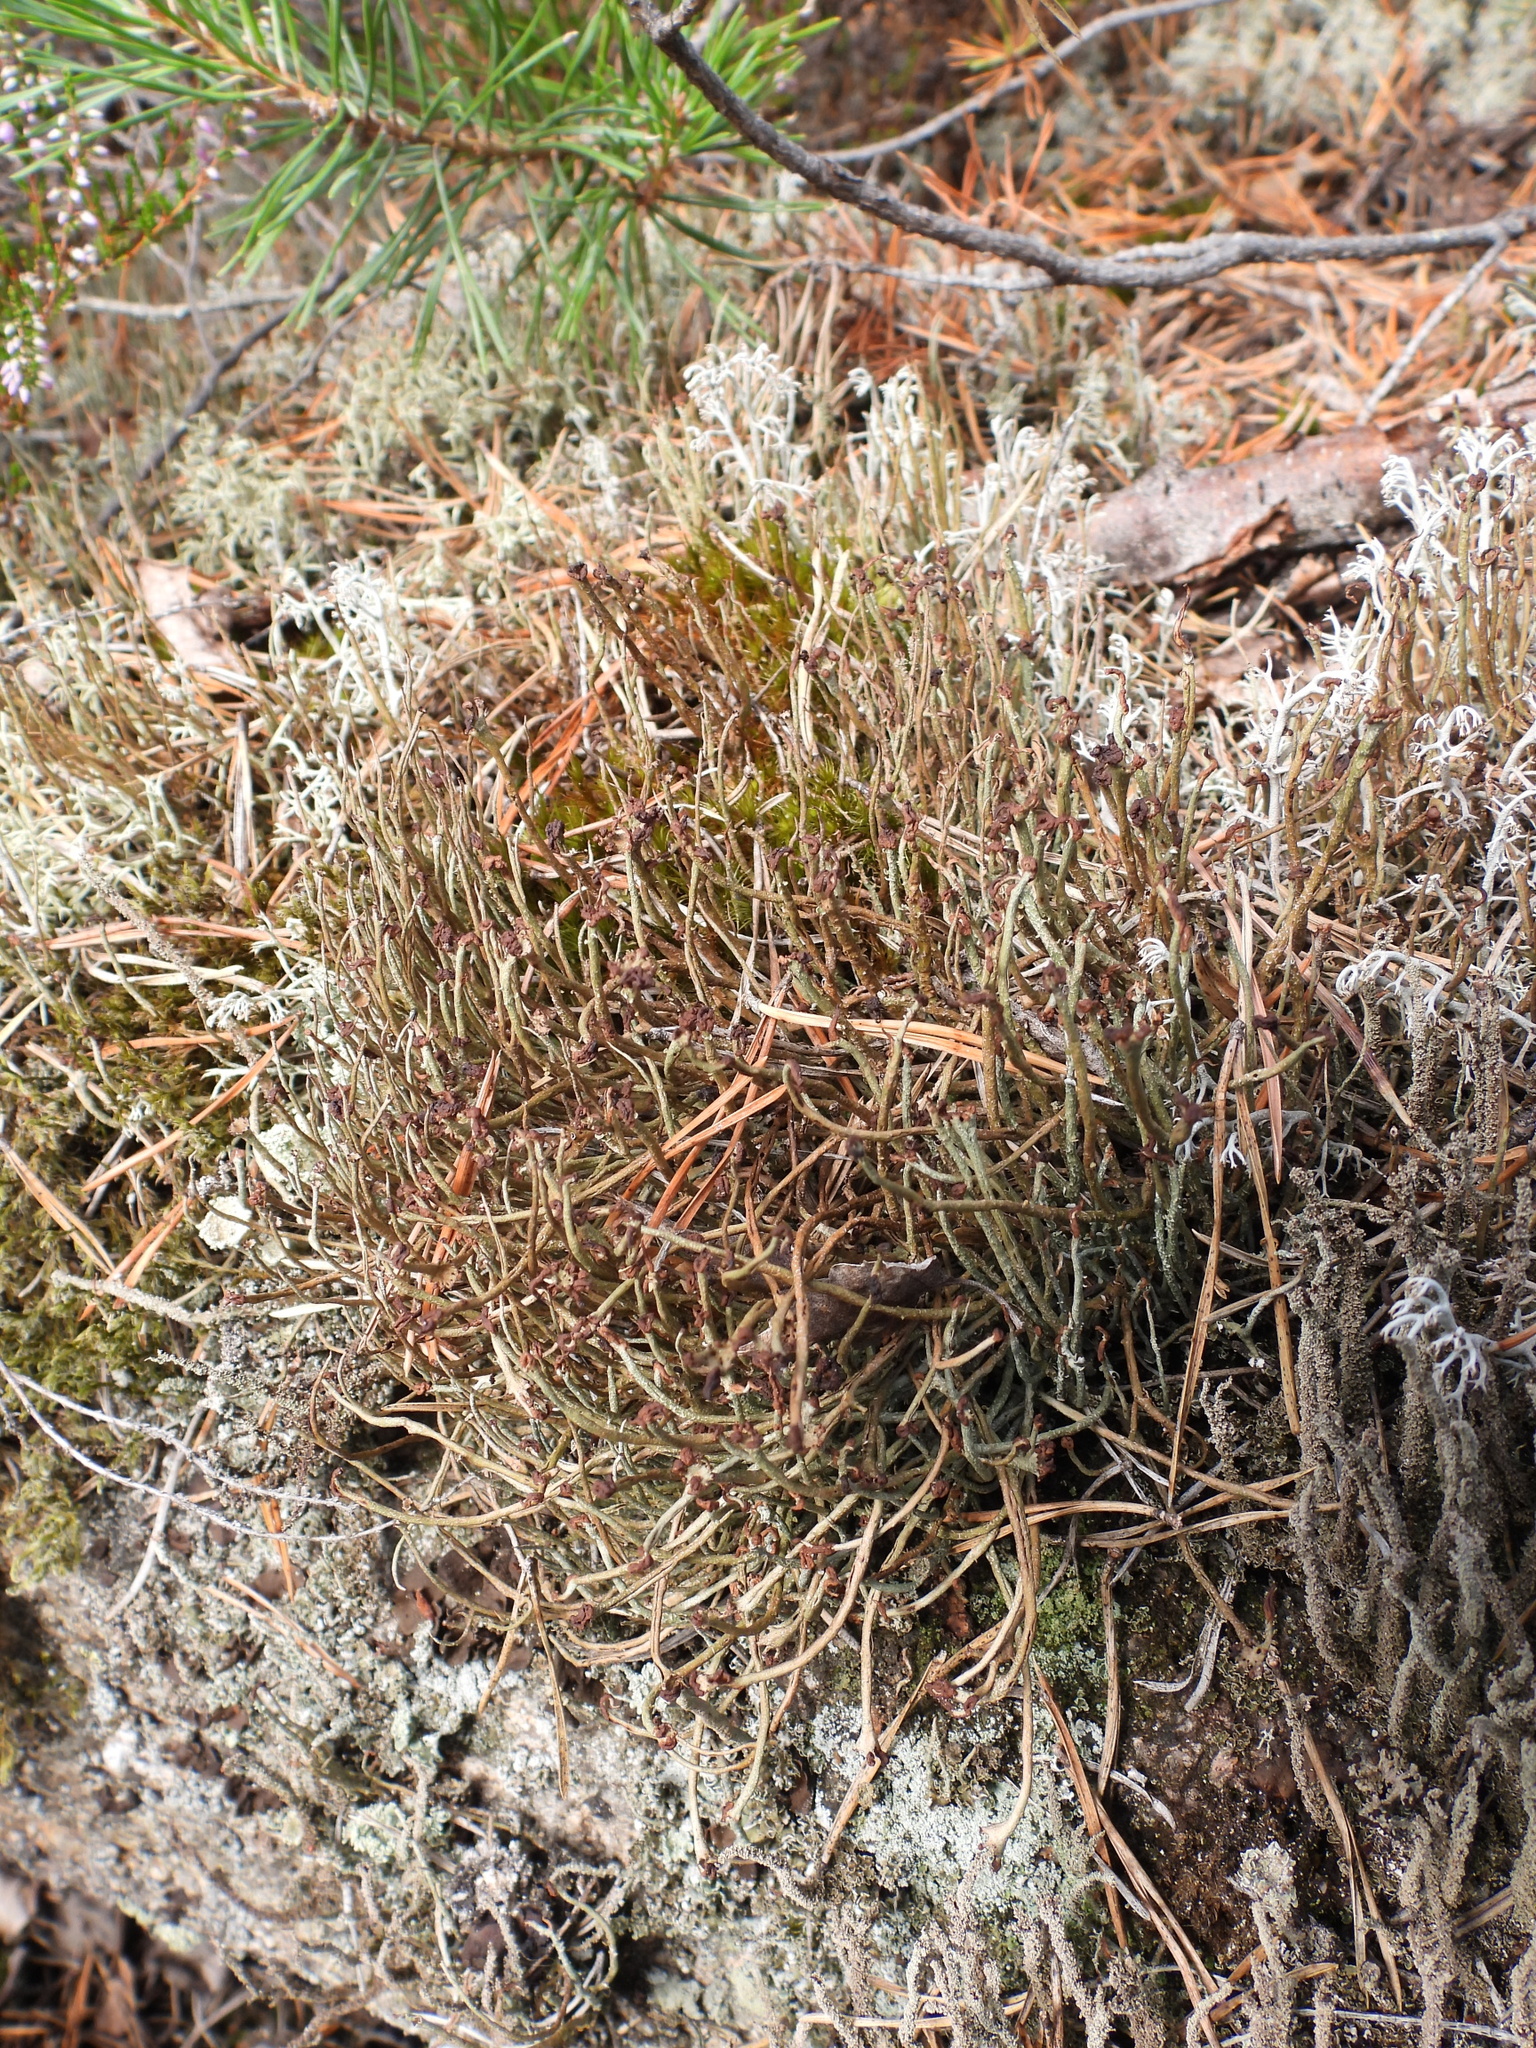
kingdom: Fungi
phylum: Ascomycota
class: Lecanoromycetes
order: Lecanorales
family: Cladoniaceae
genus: Cladonia
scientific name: Cladonia gracilis
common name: Smooth clad lichen
